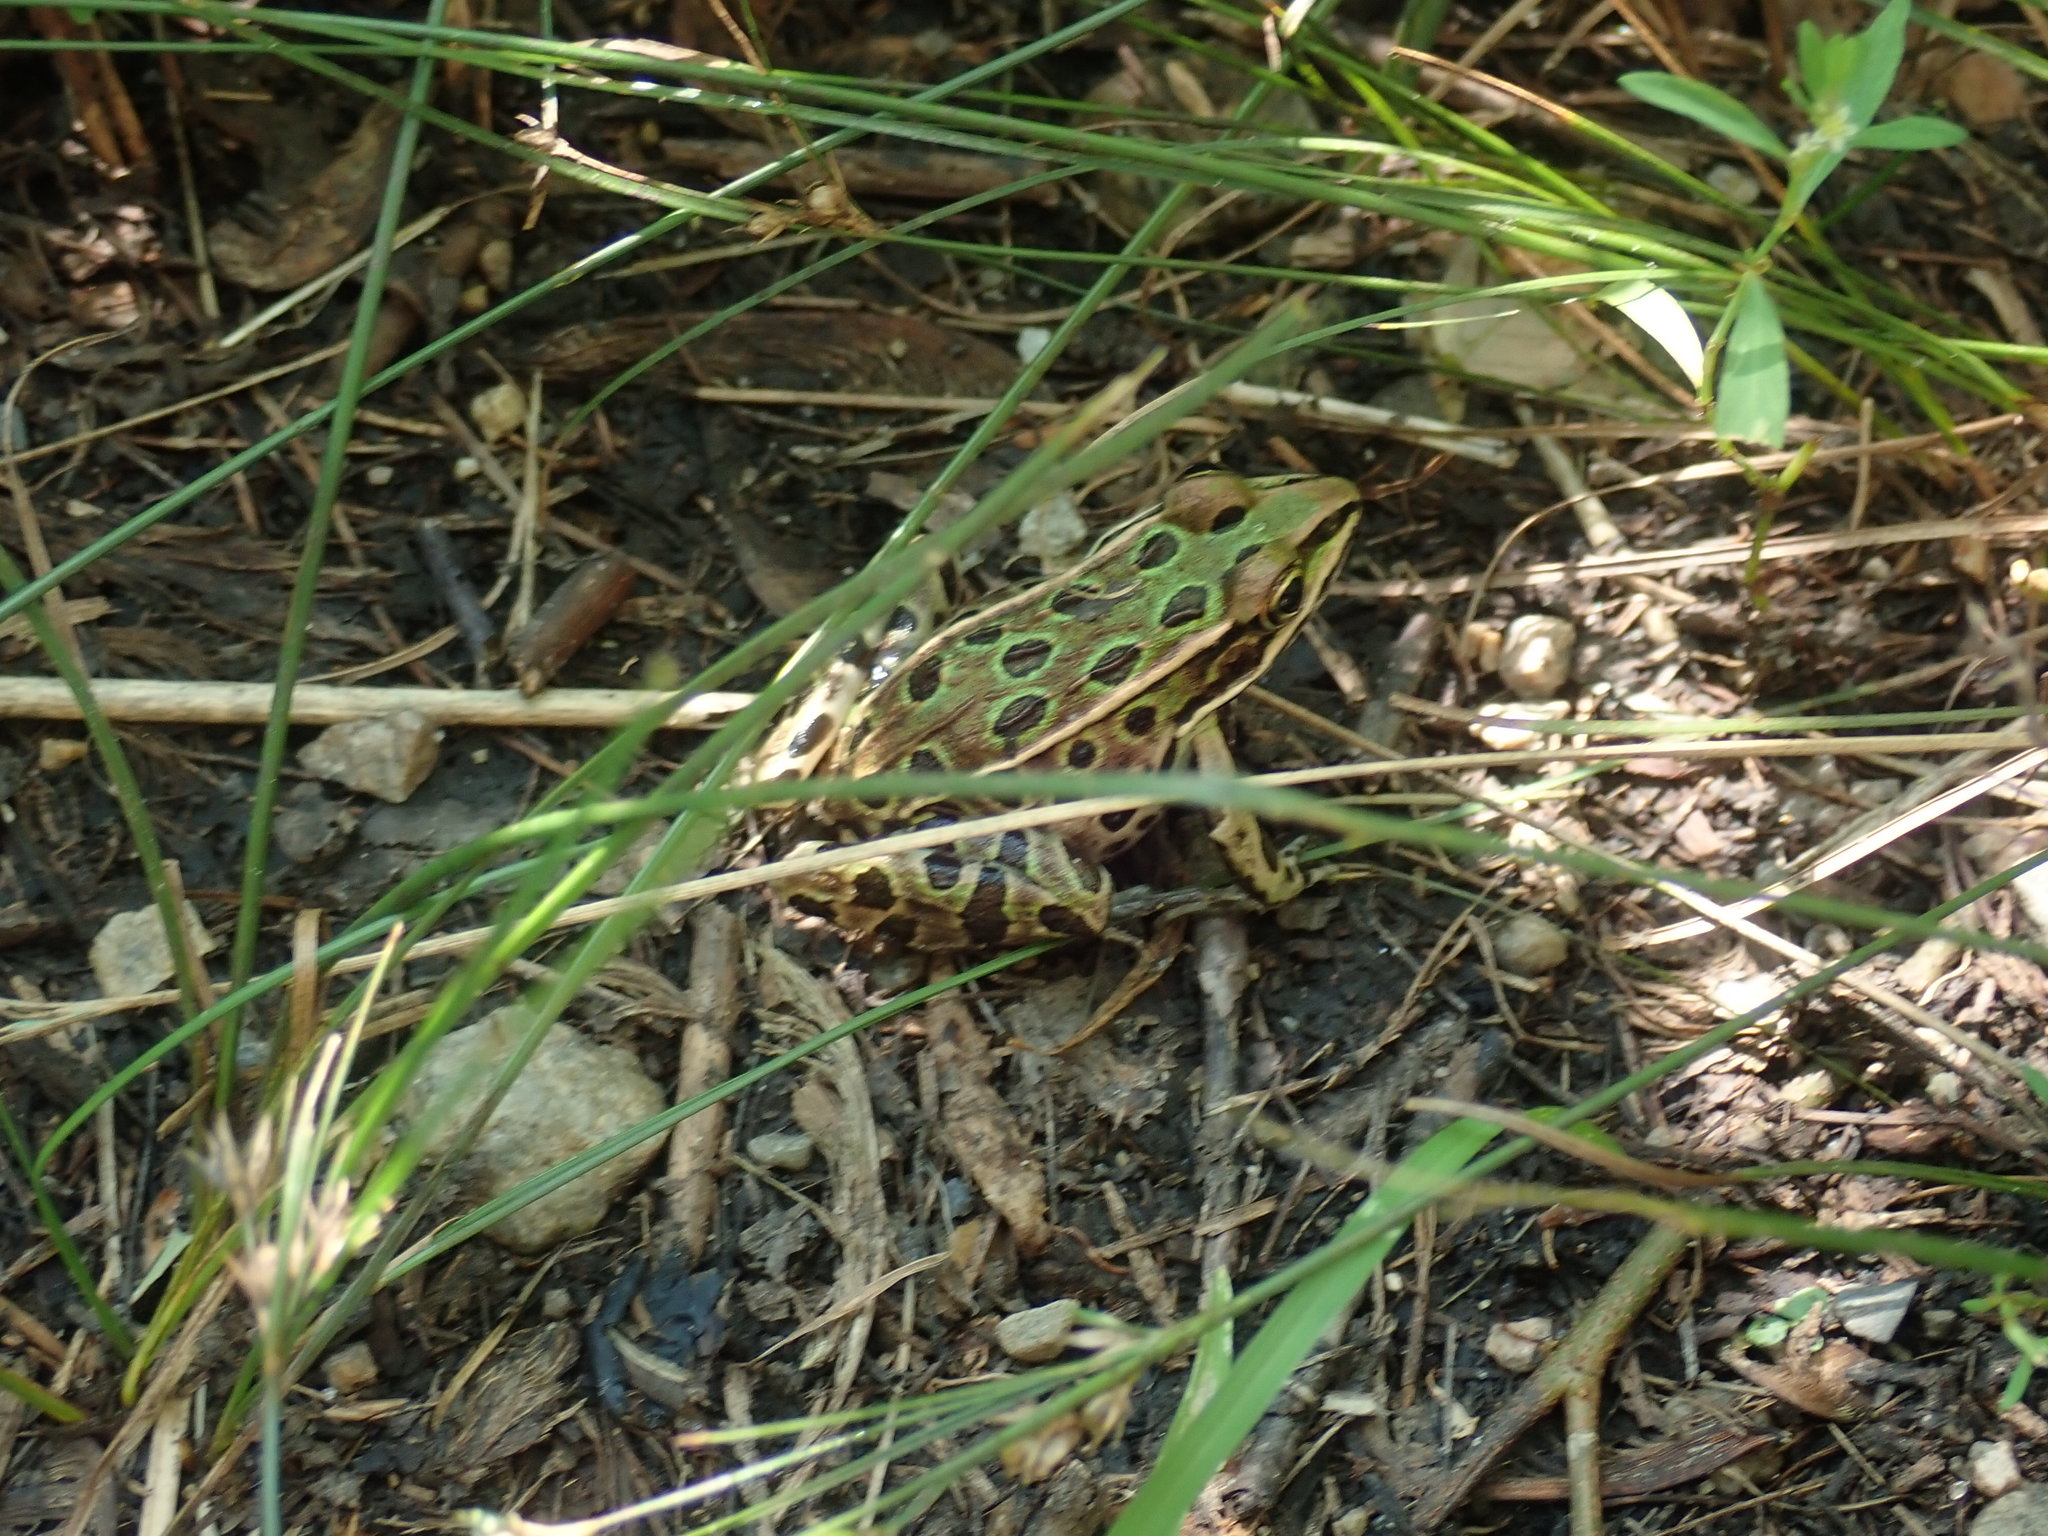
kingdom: Animalia
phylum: Chordata
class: Amphibia
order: Anura
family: Ranidae
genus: Lithobates
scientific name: Lithobates pipiens
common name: Northern leopard frog
